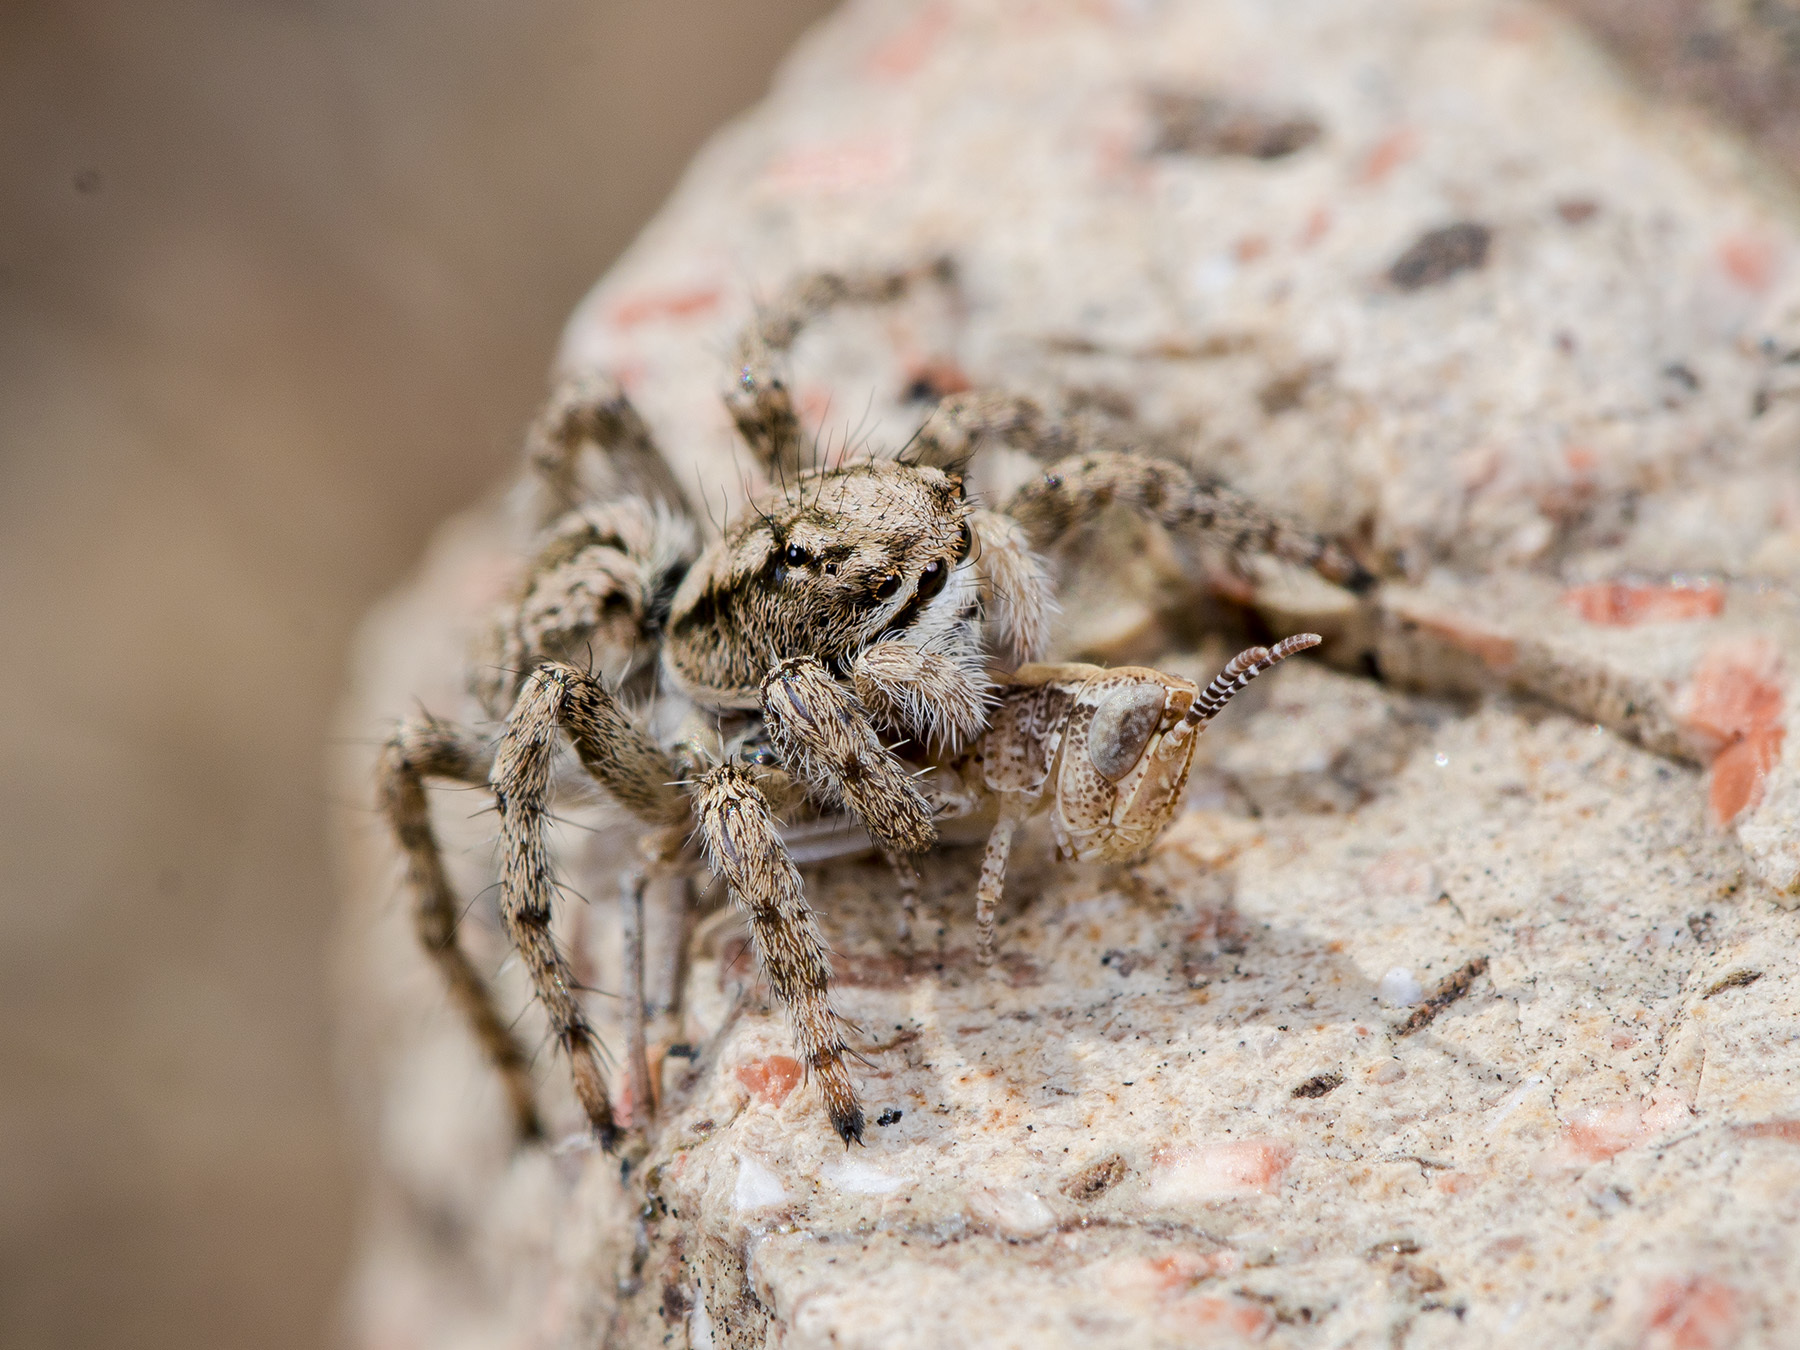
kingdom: Animalia
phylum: Arthropoda
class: Arachnida
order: Araneae
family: Salticidae
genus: Rafalus
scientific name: Rafalus variegatus
